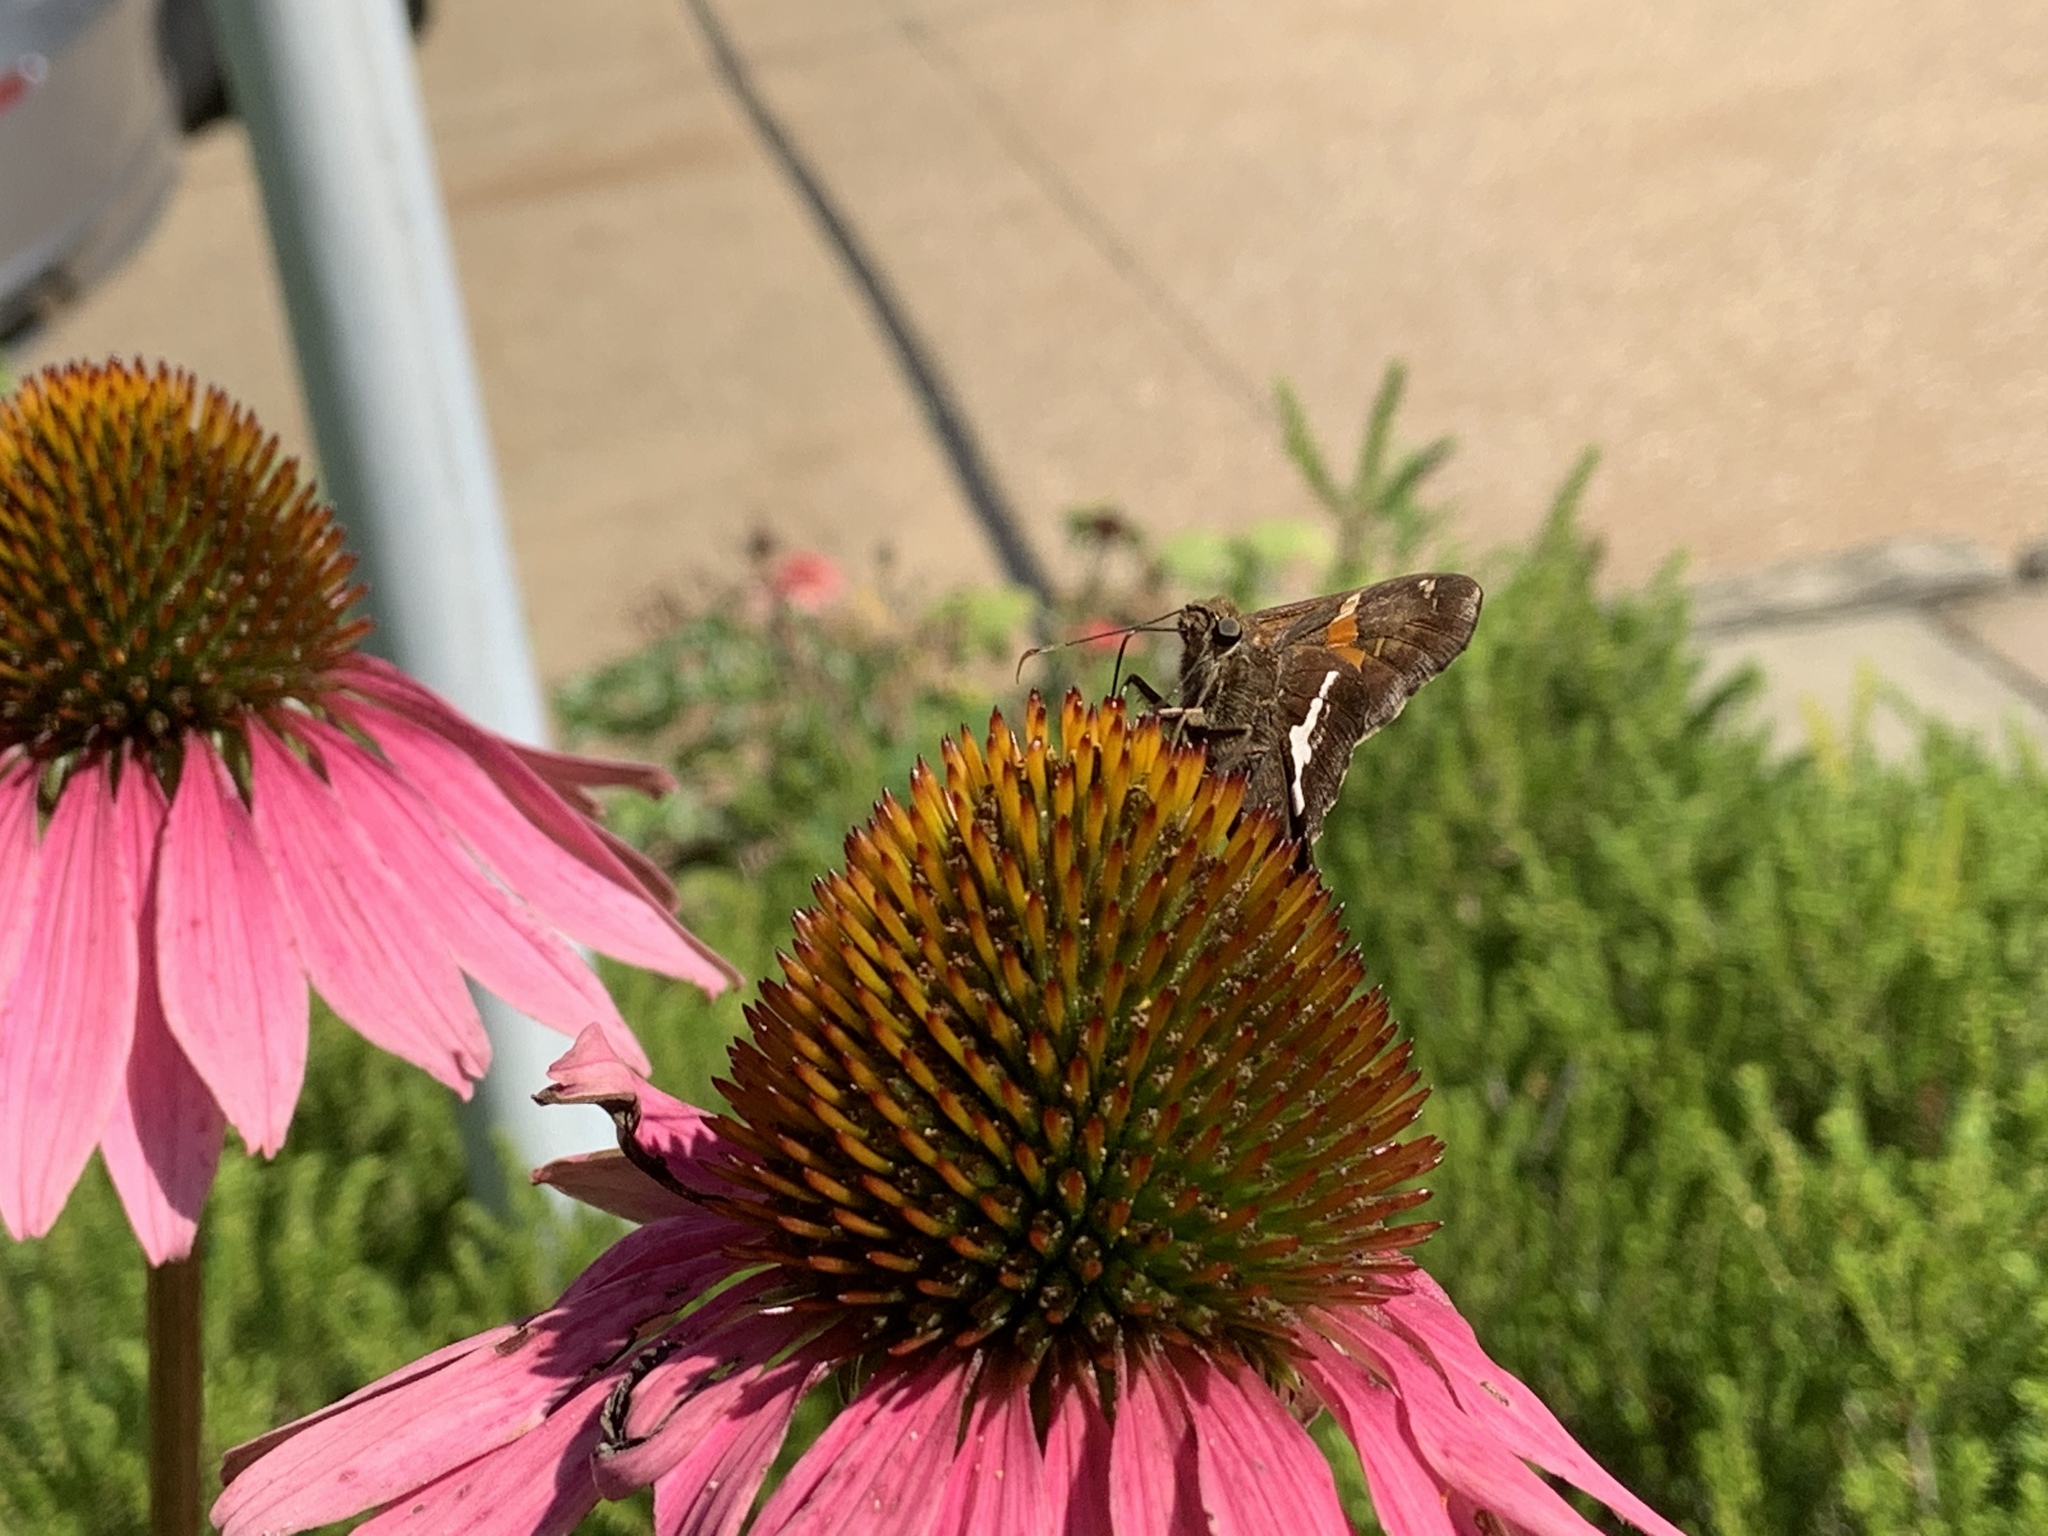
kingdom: Animalia
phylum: Arthropoda
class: Insecta
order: Lepidoptera
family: Hesperiidae
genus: Epargyreus
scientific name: Epargyreus clarus
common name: Silver-spotted skipper
